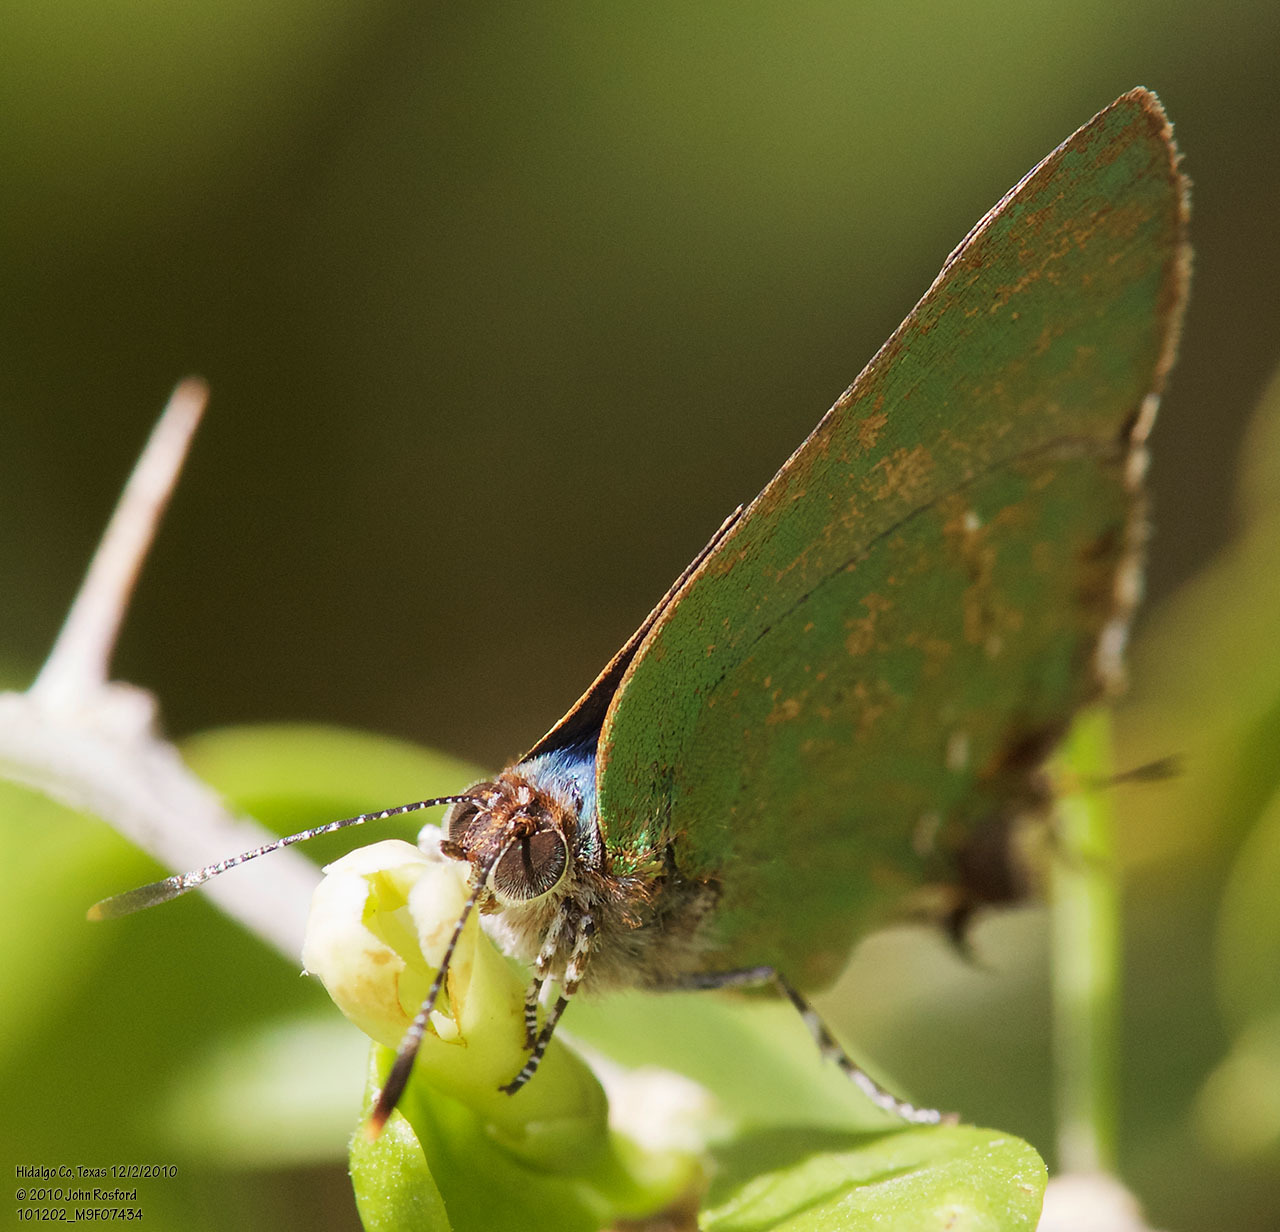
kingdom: Animalia
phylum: Arthropoda
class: Insecta
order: Lepidoptera
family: Lycaenidae
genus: Cyanophrys
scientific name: Cyanophrys miserabilis
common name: Clench's greenstreak
